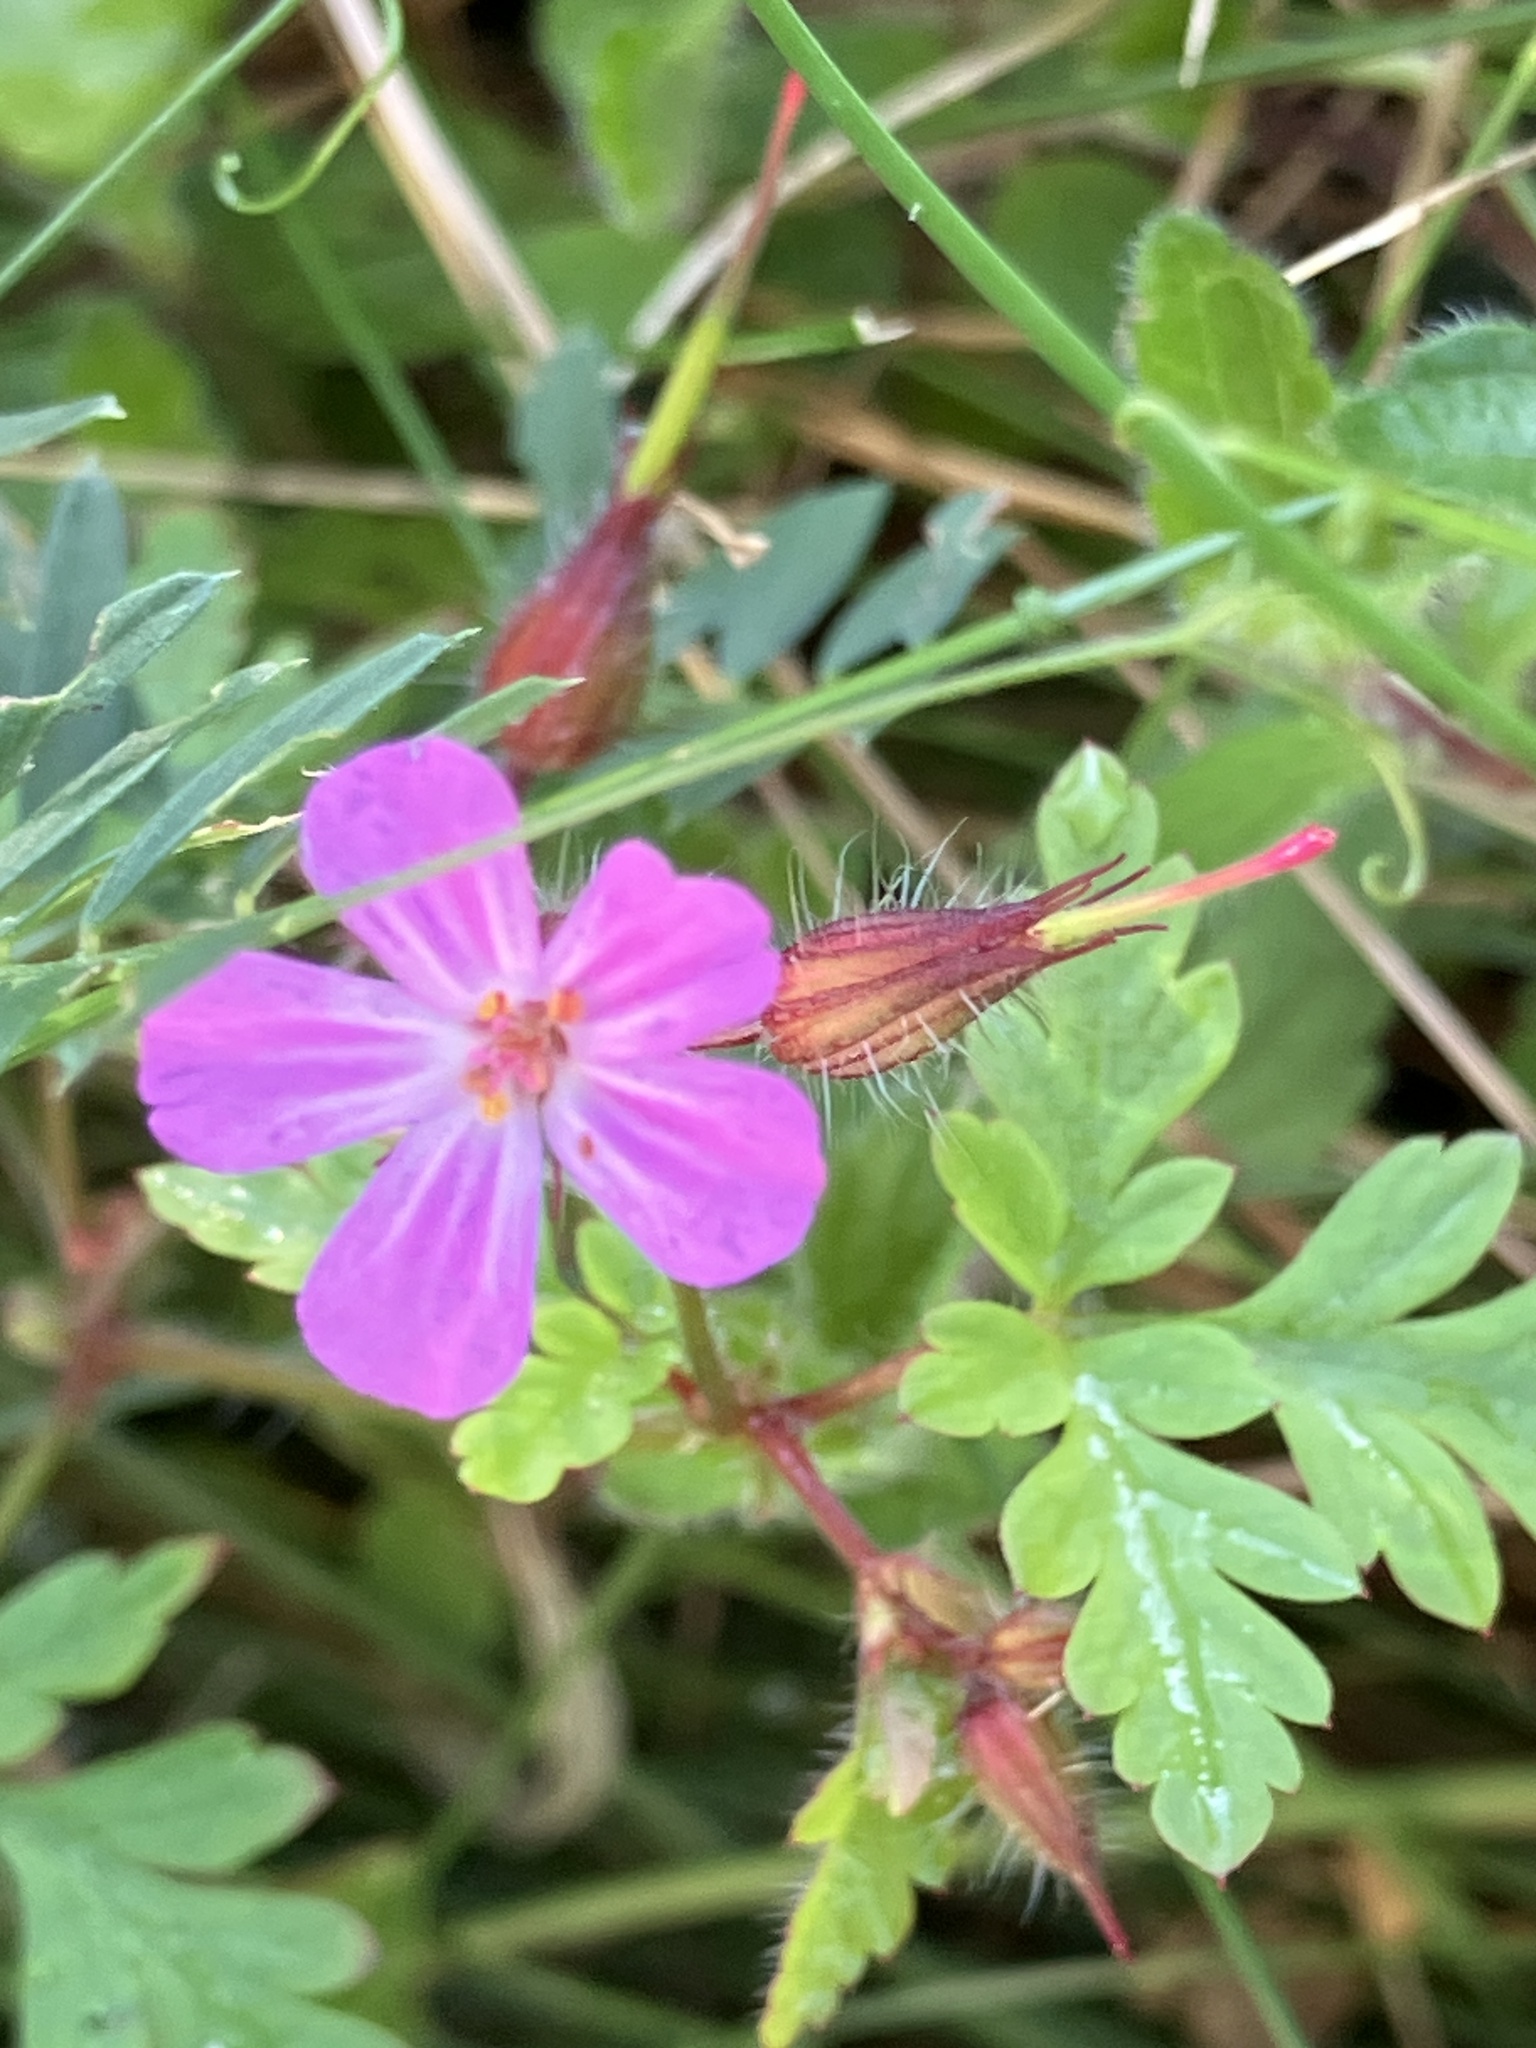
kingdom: Plantae
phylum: Tracheophyta
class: Magnoliopsida
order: Geraniales
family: Geraniaceae
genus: Geranium
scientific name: Geranium robertianum
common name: Herb-robert
